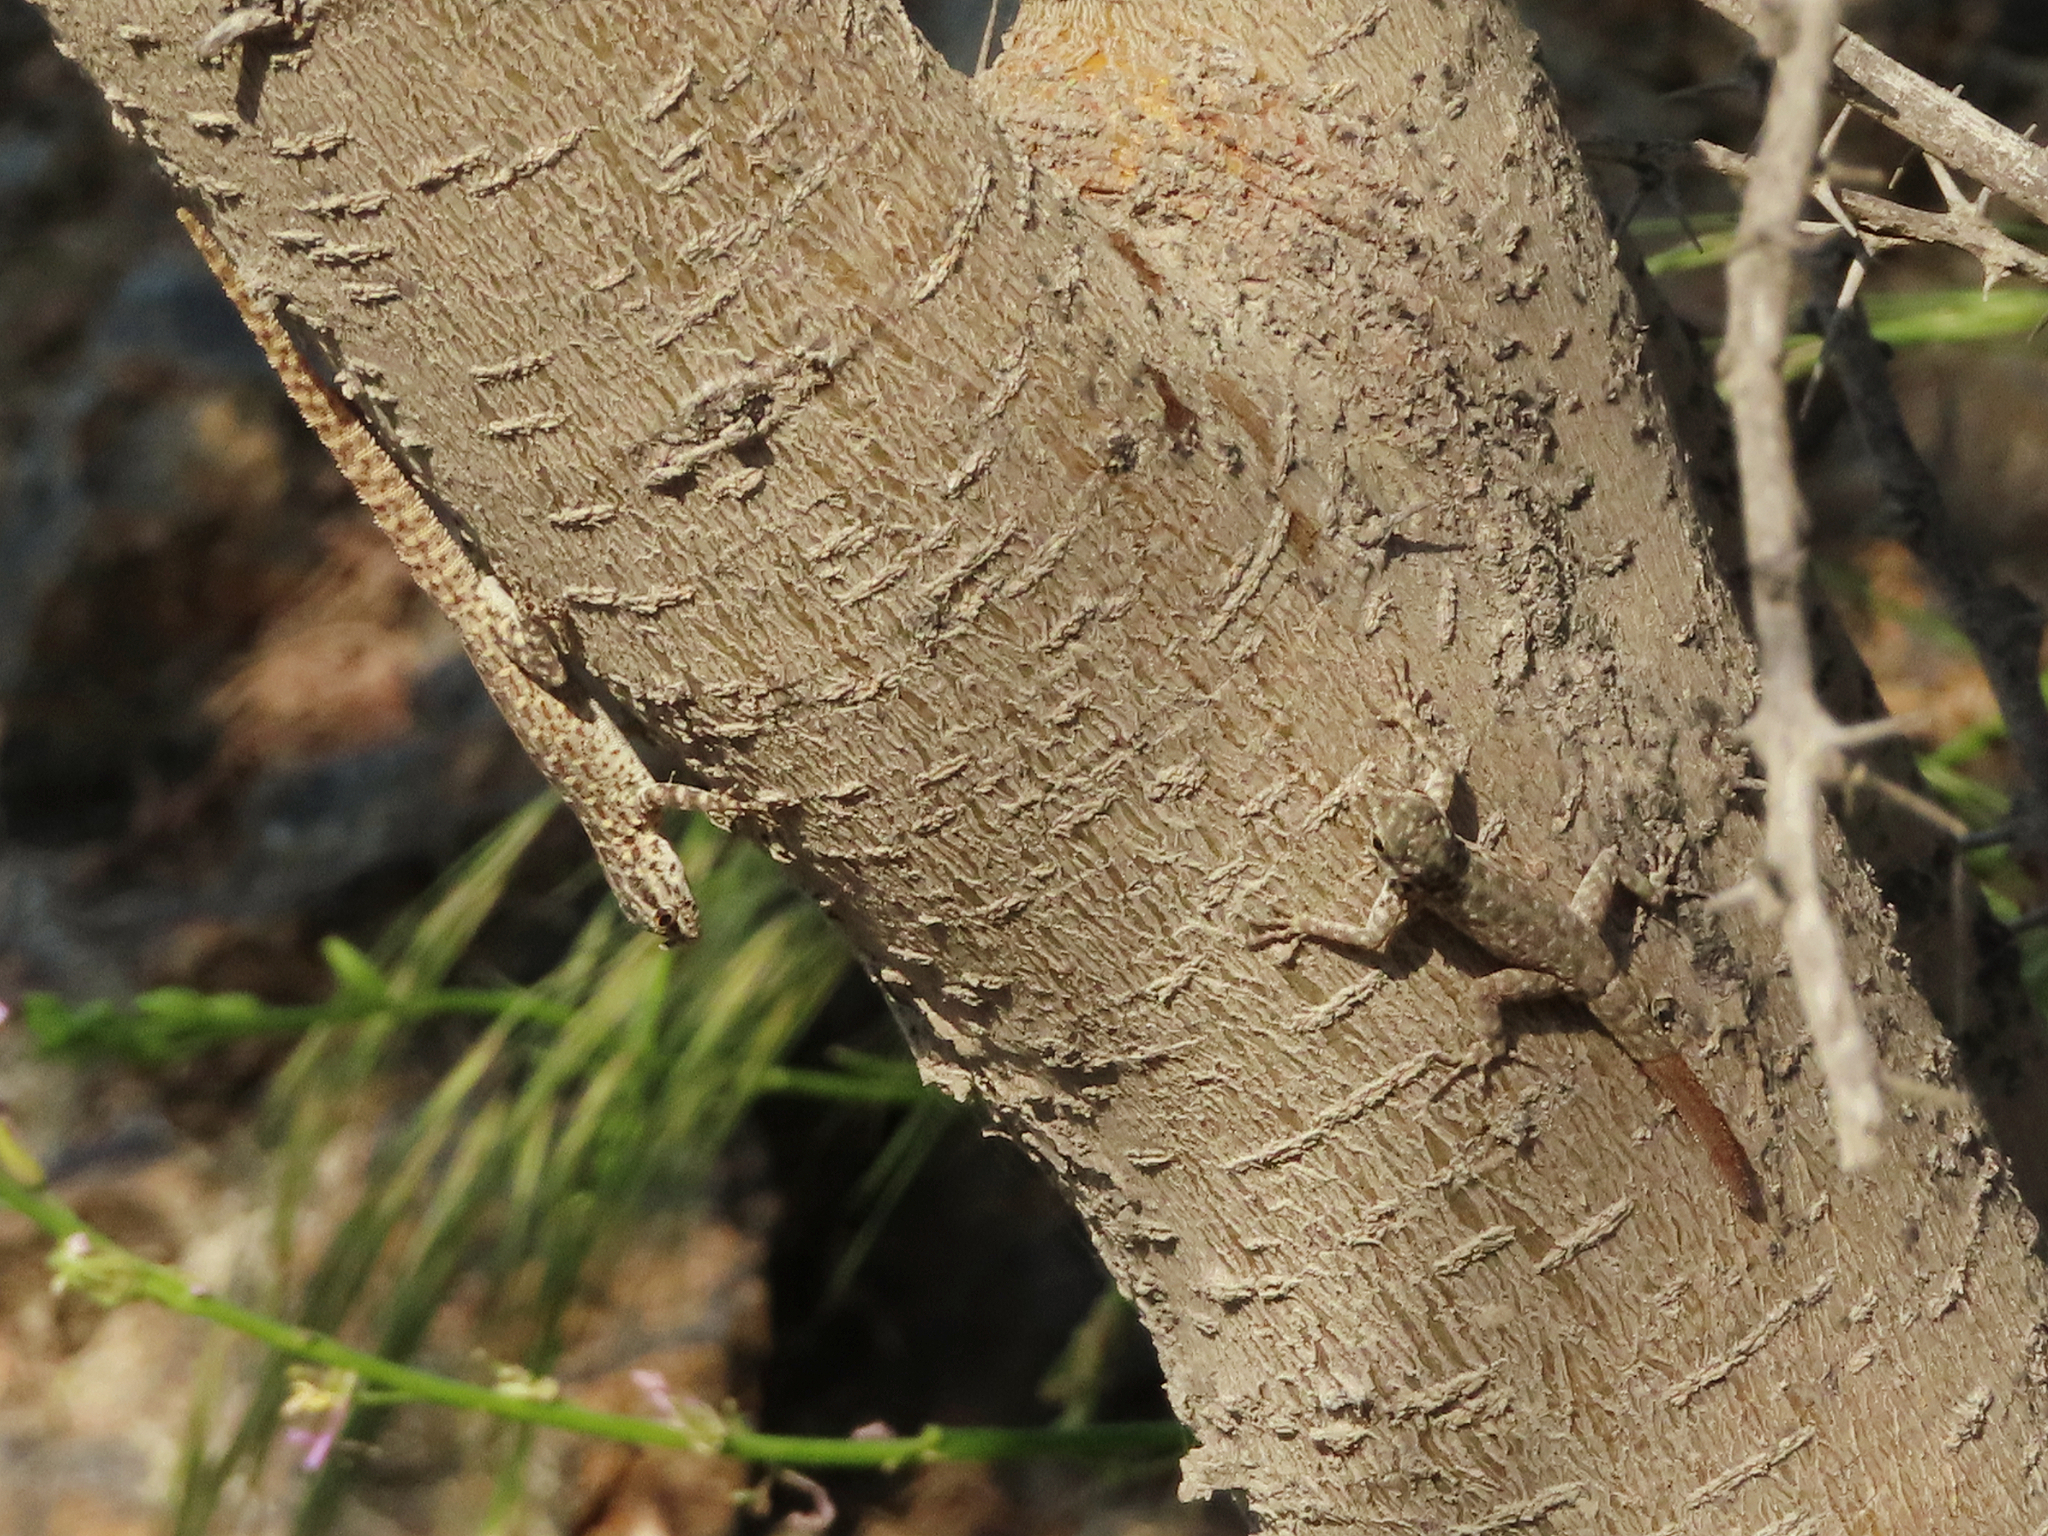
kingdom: Animalia
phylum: Chordata
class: Squamata
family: Sphaerodactylidae
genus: Pristurus
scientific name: Pristurus rupestris
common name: Blanford’s semaphore gecko
